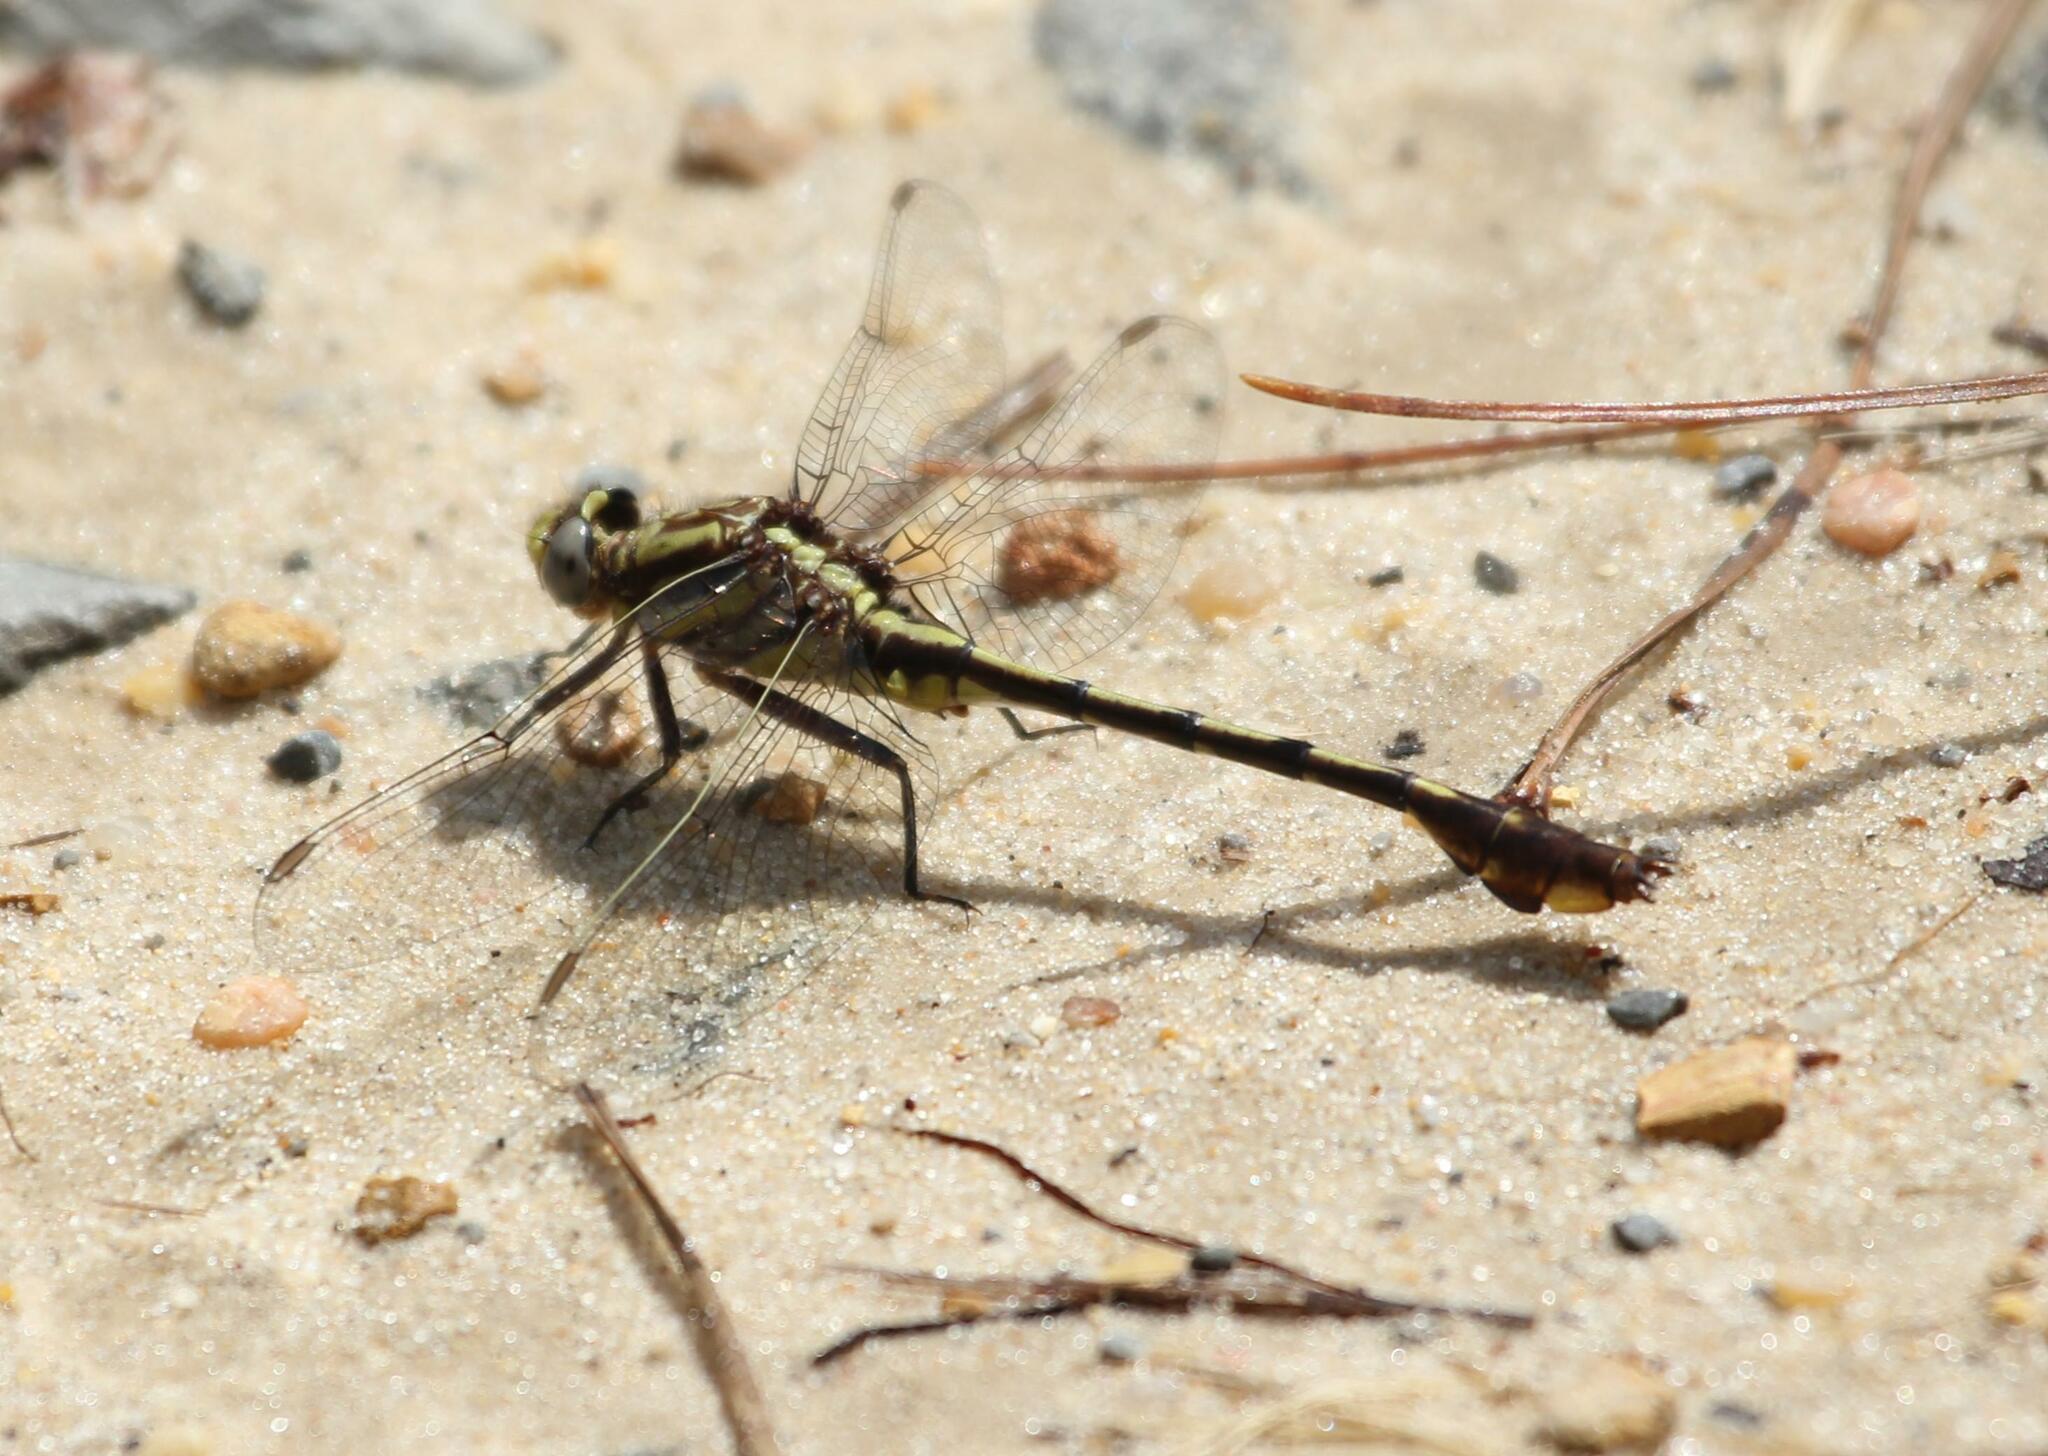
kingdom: Animalia
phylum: Arthropoda
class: Insecta
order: Odonata
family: Gomphidae
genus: Gomphurus
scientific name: Gomphurus hybridus
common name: Cocoa clubtail
